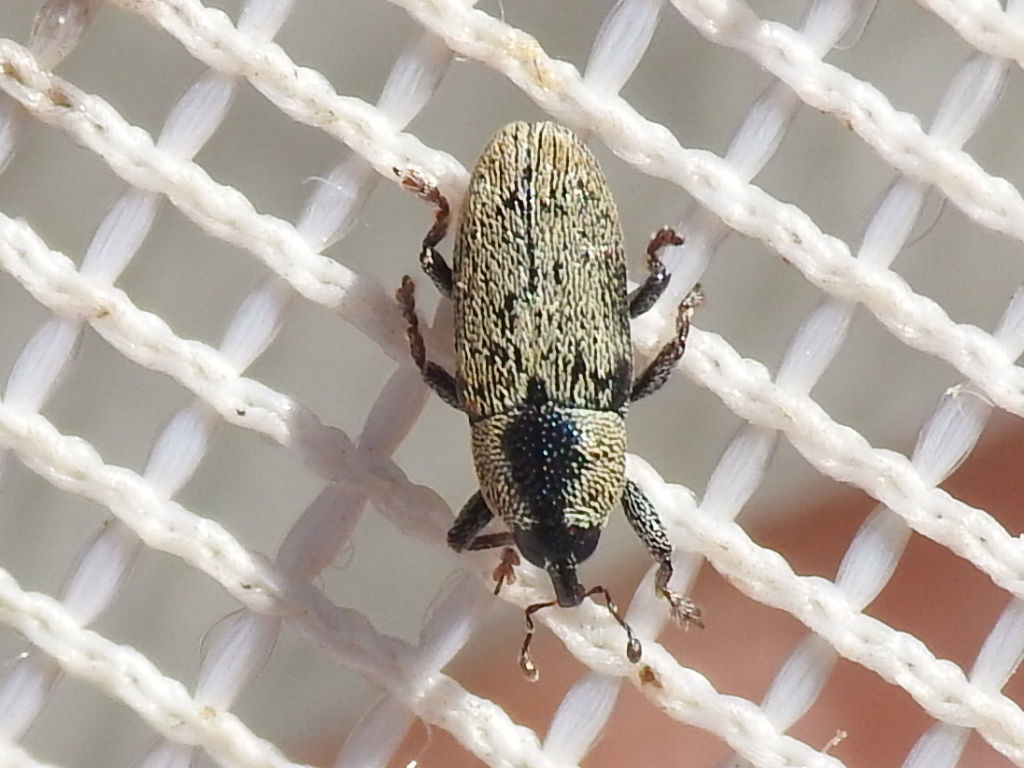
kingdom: Animalia
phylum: Arthropoda
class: Insecta
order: Coleoptera
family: Curculionidae
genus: Barinus
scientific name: Barinus curticollis
